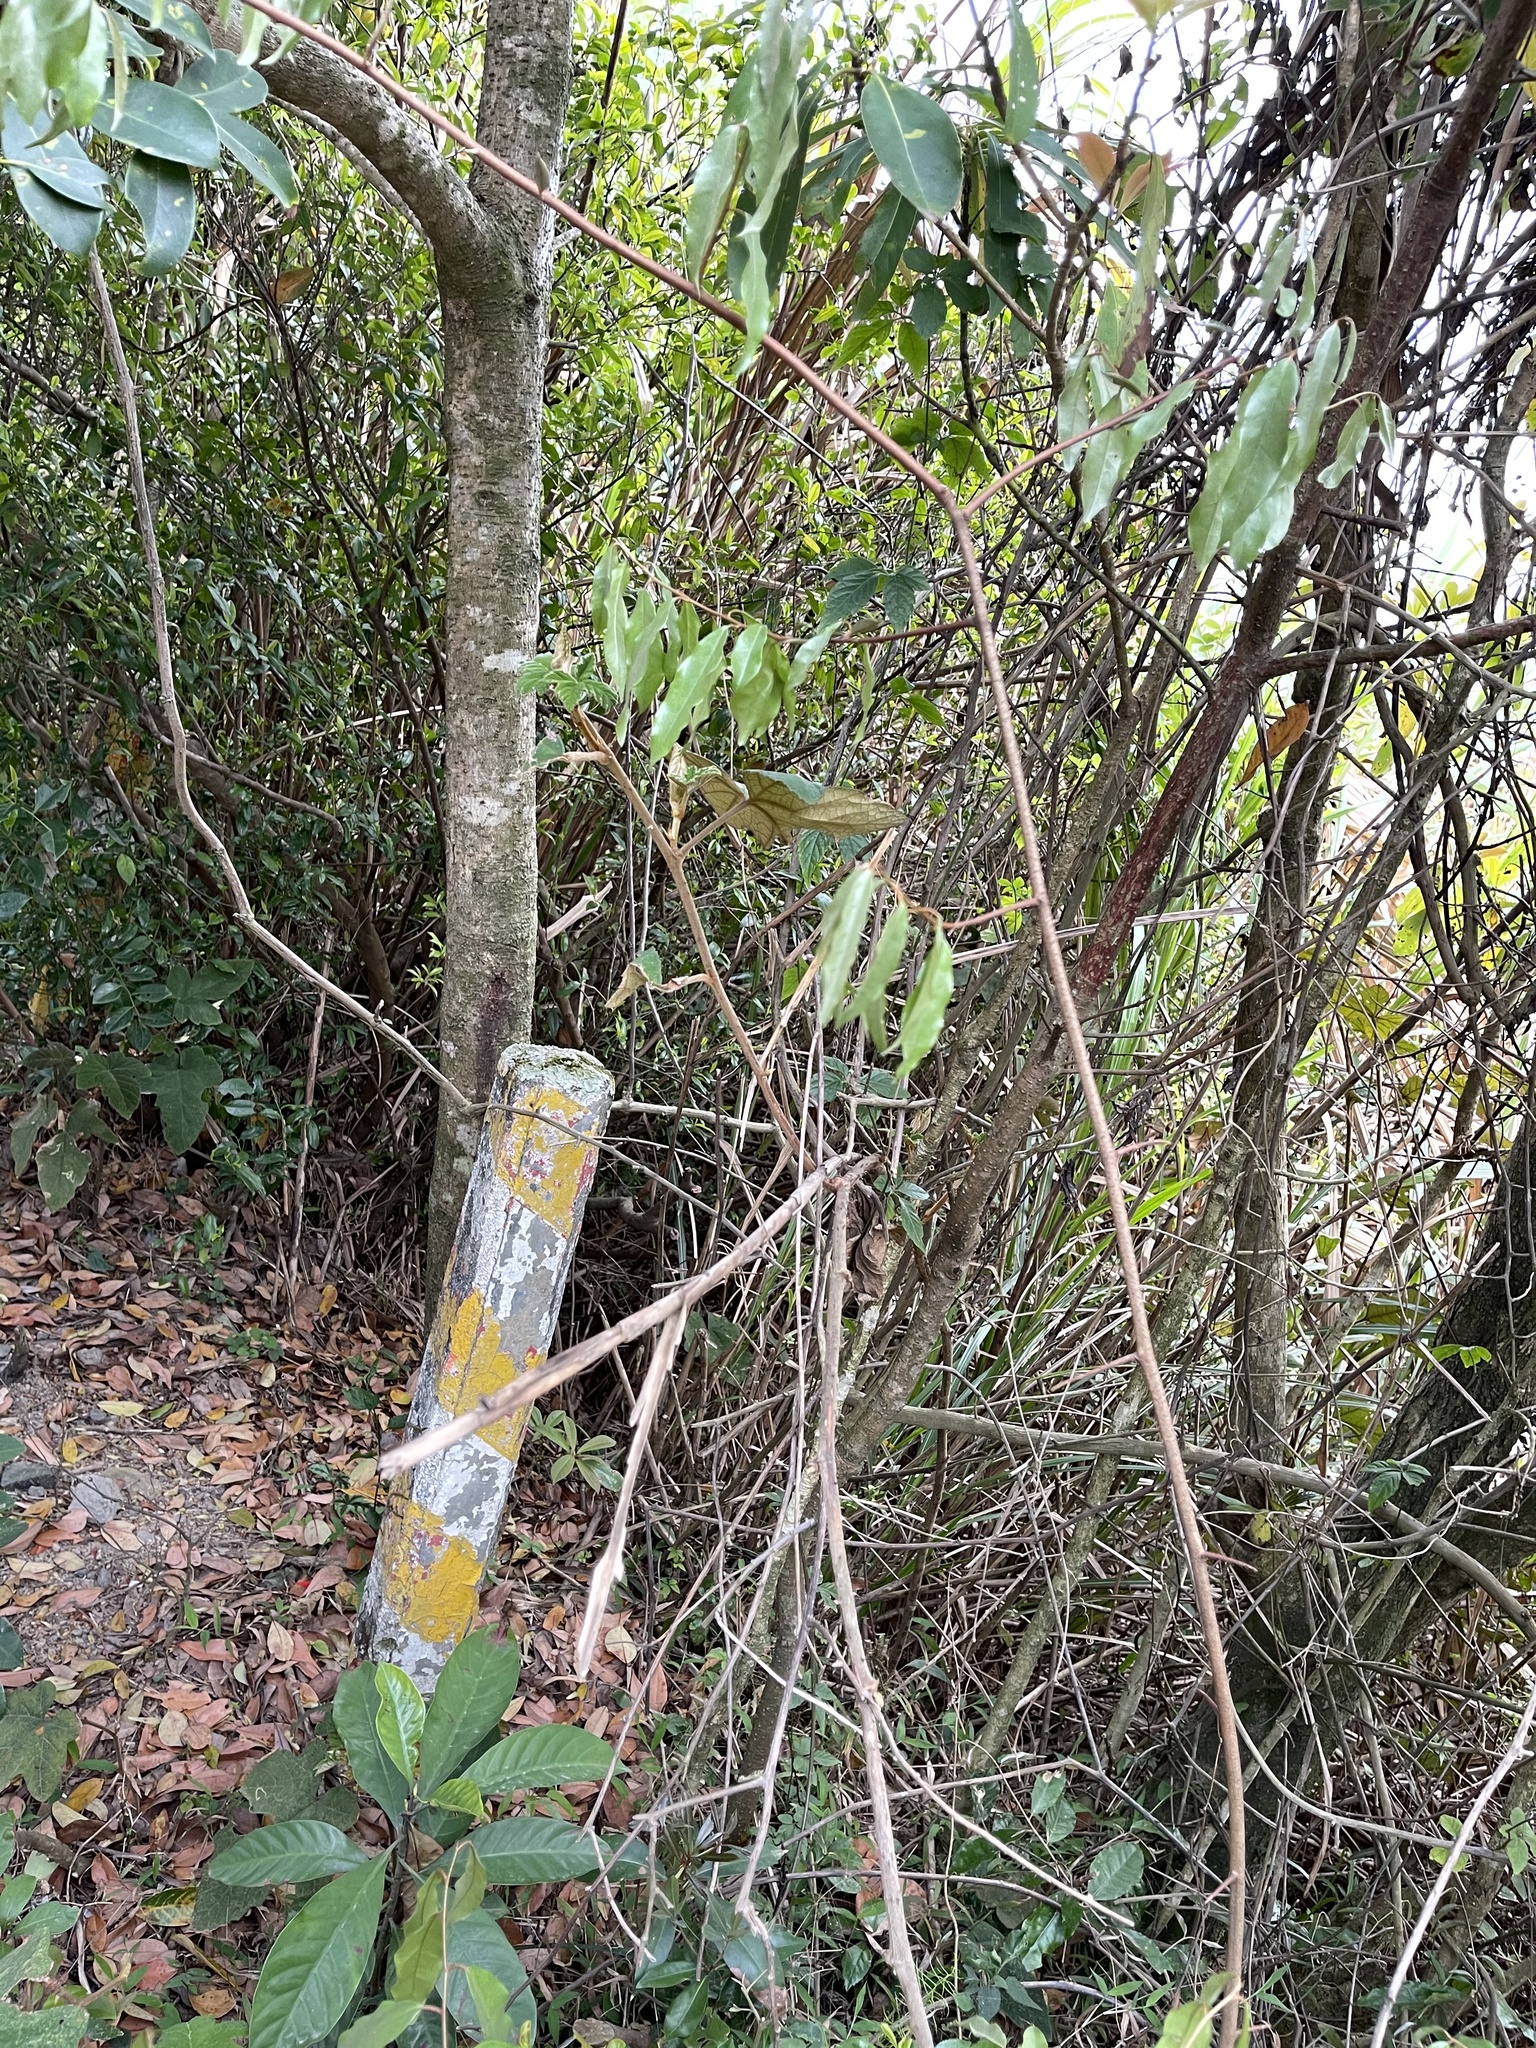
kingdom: Plantae
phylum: Tracheophyta
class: Magnoliopsida
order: Rosales
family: Elaeagnaceae
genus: Elaeagnus
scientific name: Elaeagnus loureiroi
